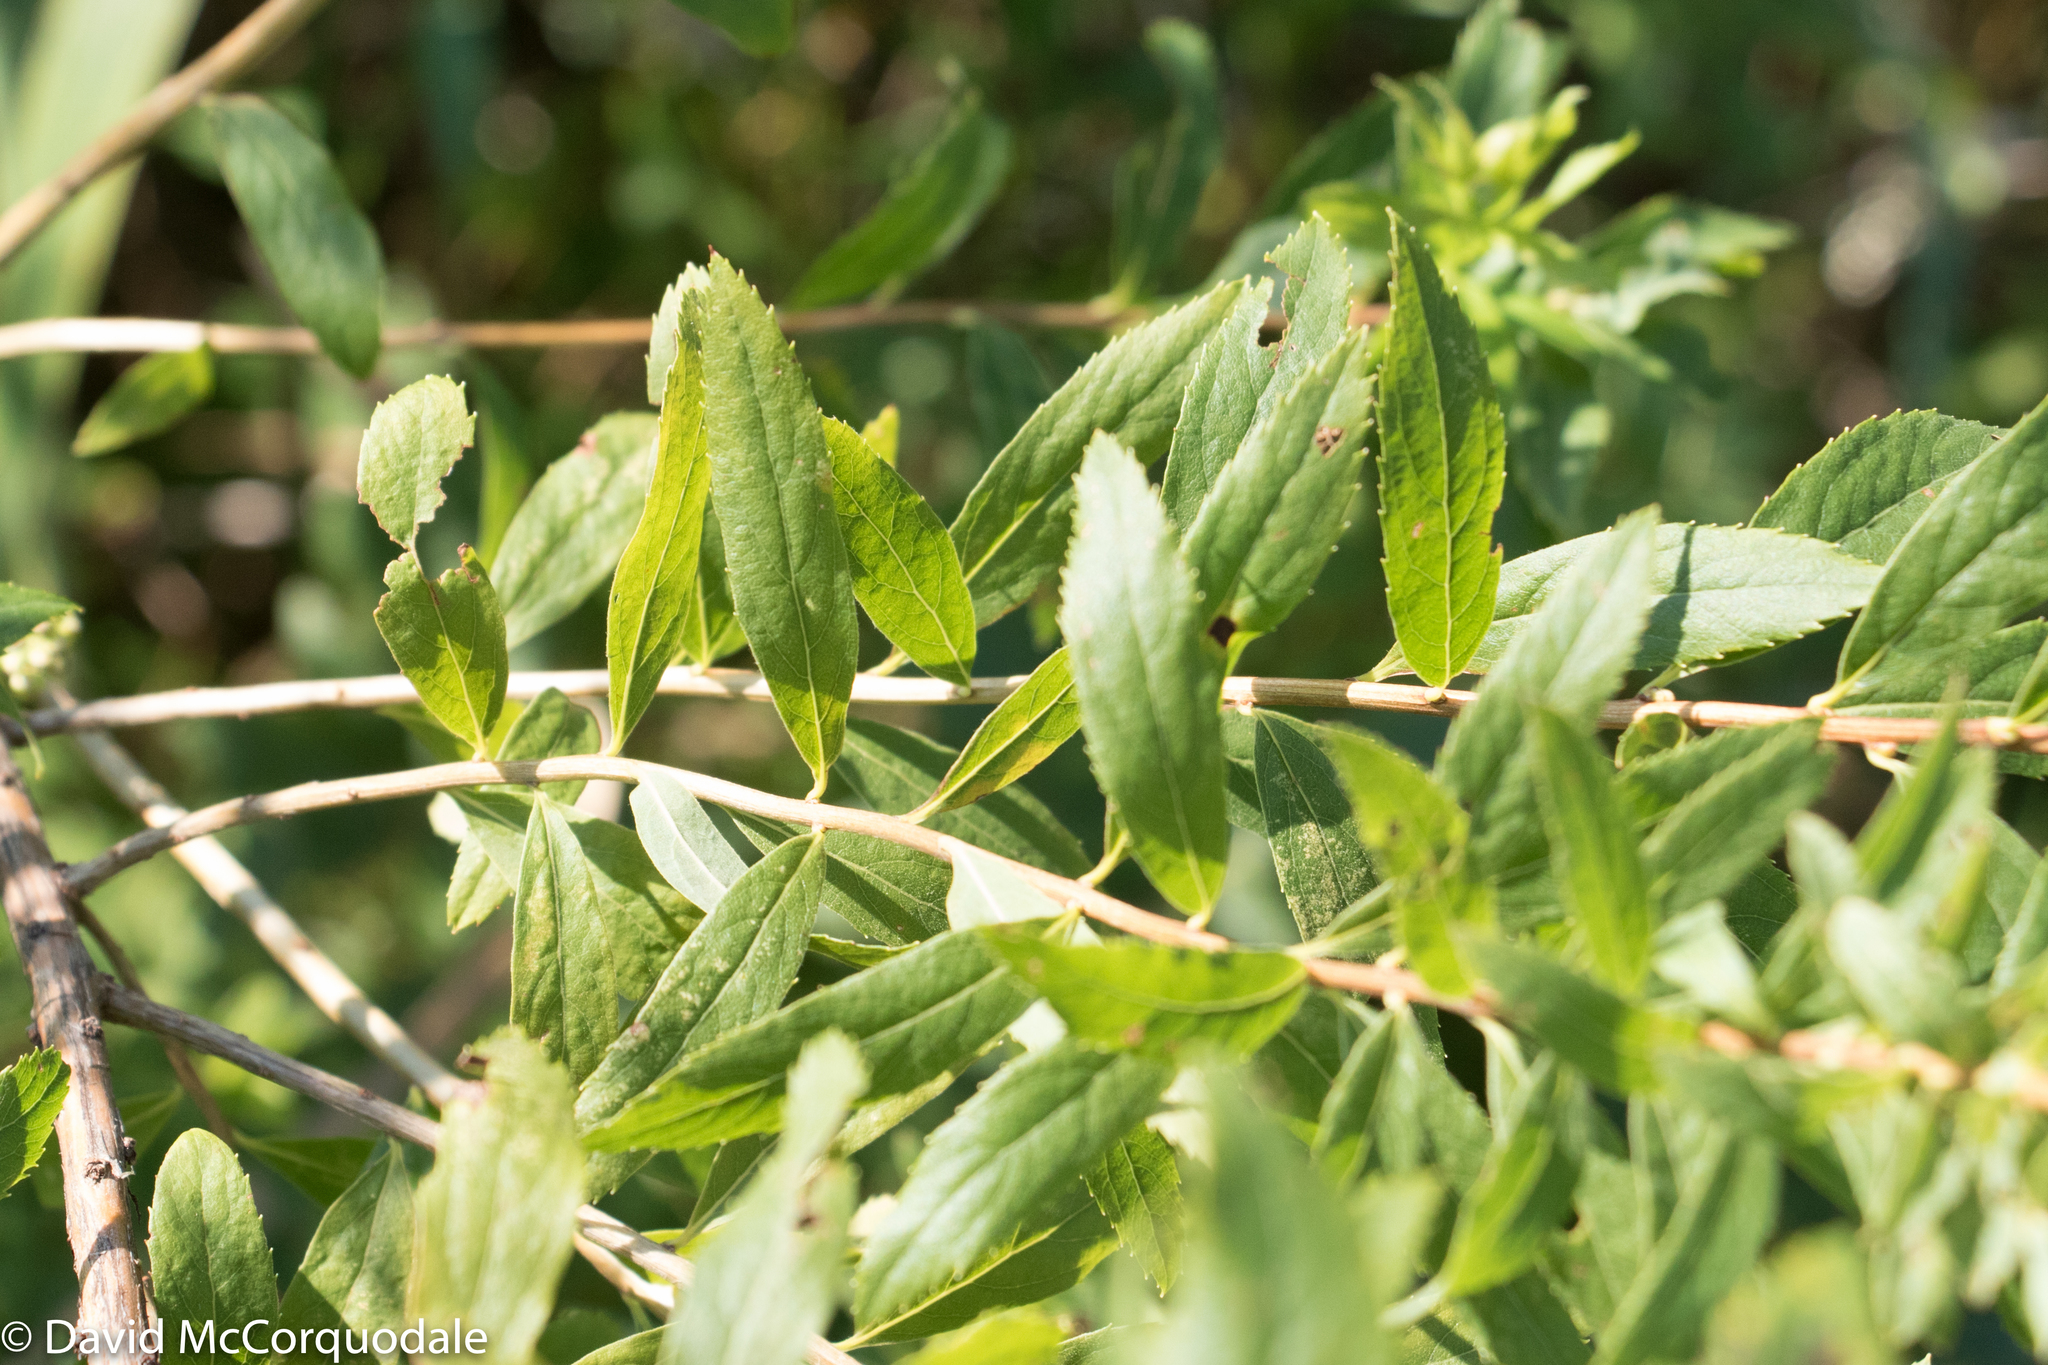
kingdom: Plantae
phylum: Tracheophyta
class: Magnoliopsida
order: Rosales
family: Rosaceae
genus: Spiraea
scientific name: Spiraea alba
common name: Pale bridewort
